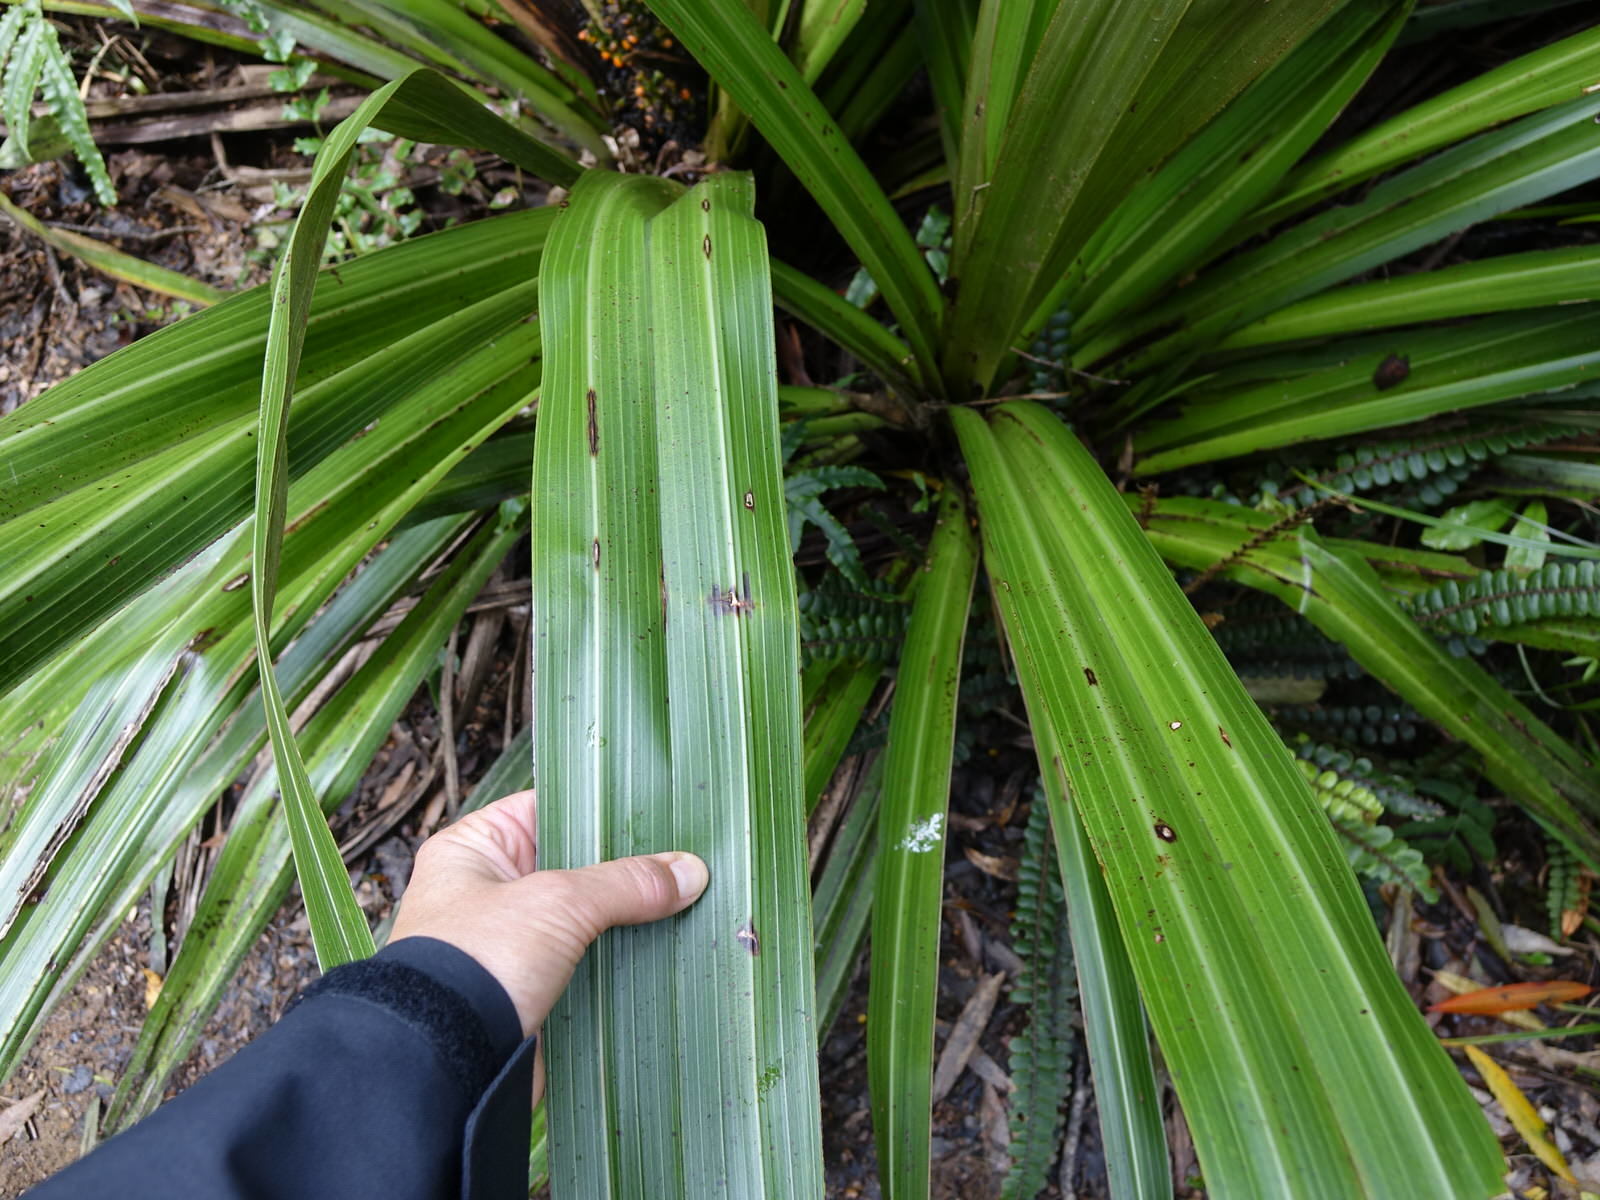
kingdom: Plantae
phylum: Tracheophyta
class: Liliopsida
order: Asparagales
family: Asteliaceae
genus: Astelia
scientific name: Astelia grandis
